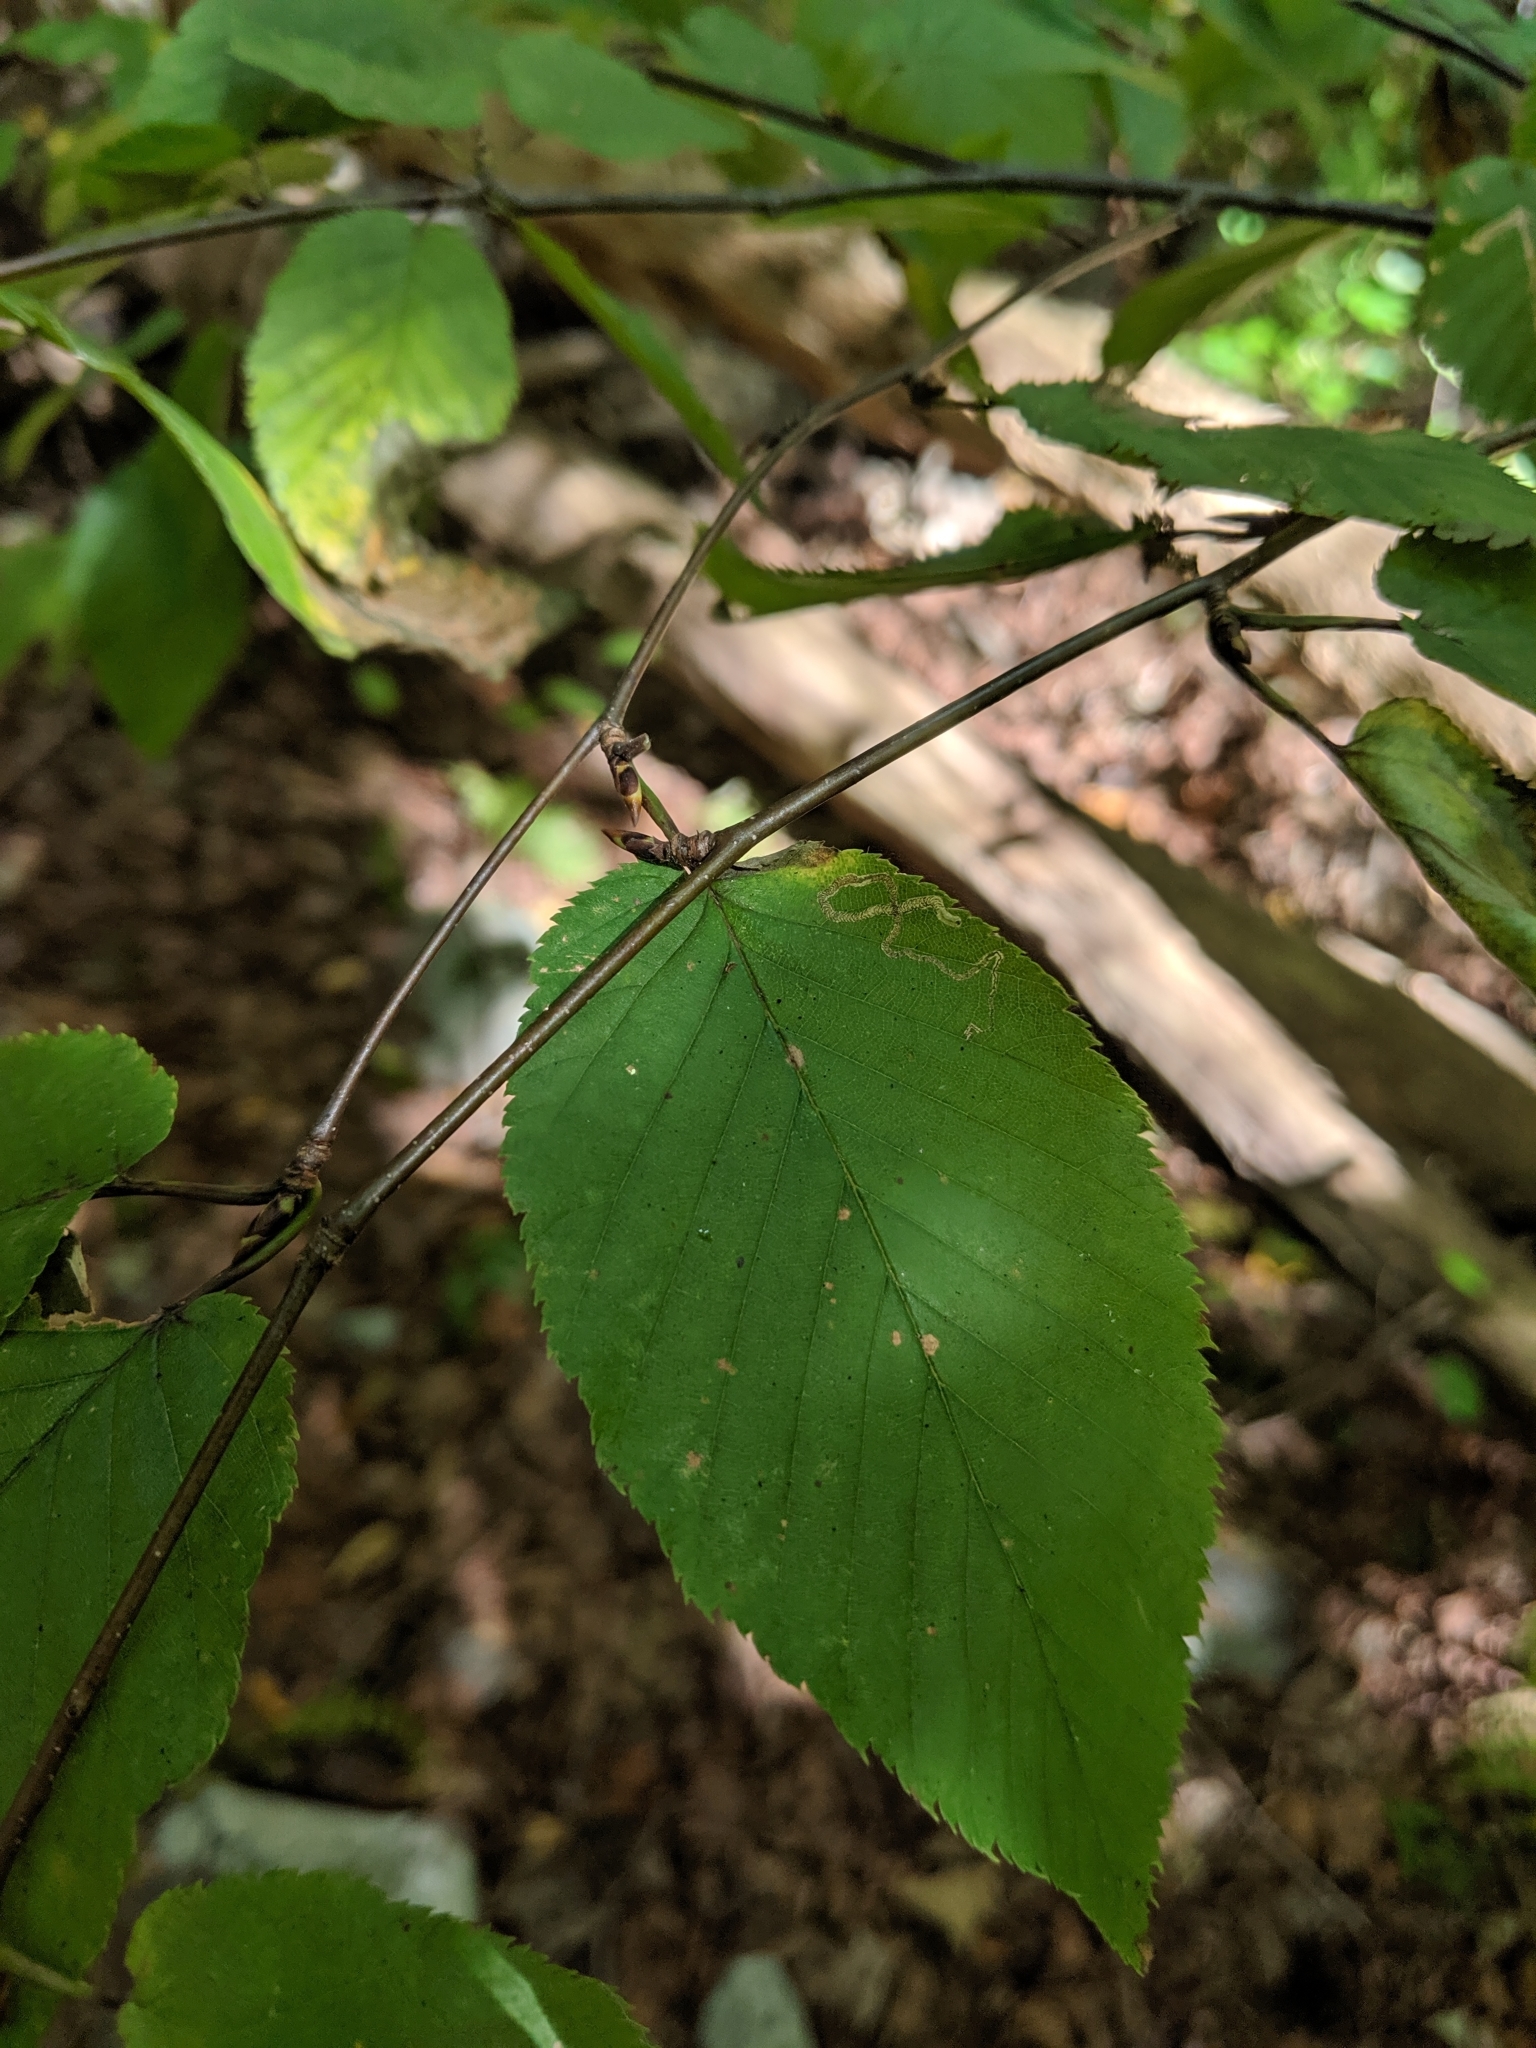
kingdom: Plantae
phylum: Tracheophyta
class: Magnoliopsida
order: Fagales
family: Betulaceae
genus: Betula
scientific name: Betula lenta
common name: Black birch
